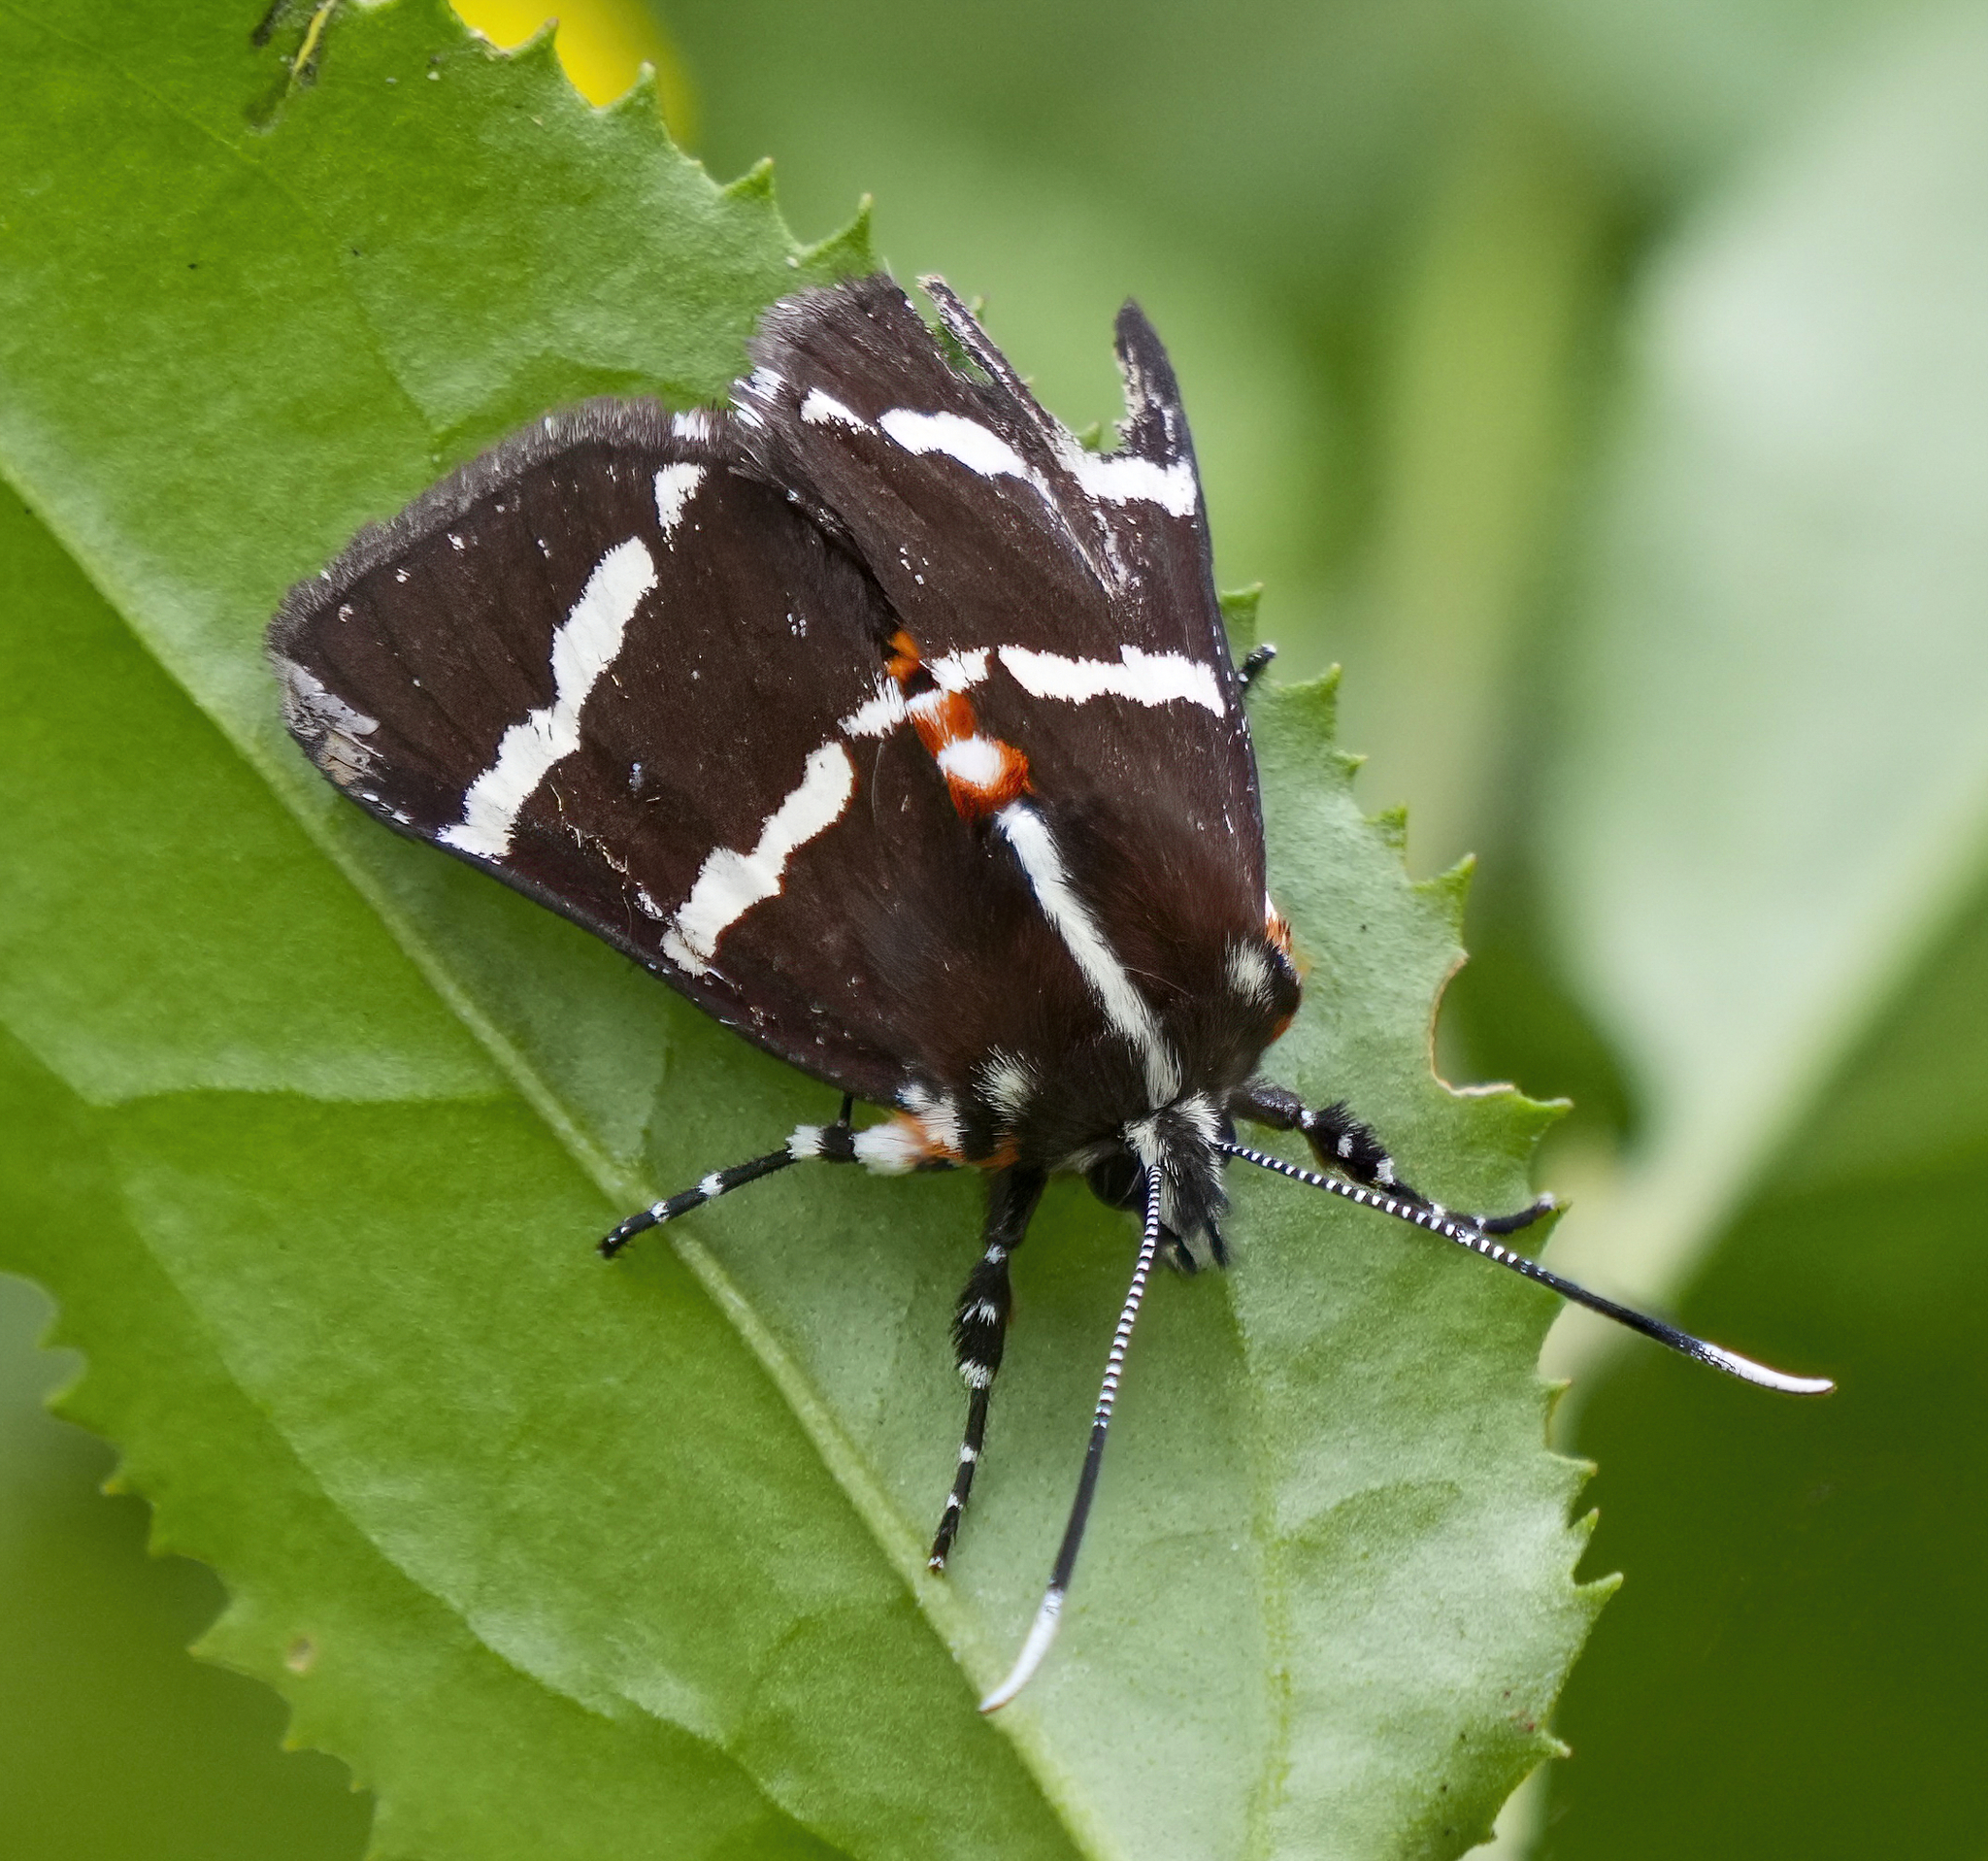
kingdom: Animalia
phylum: Arthropoda
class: Insecta
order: Lepidoptera
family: Noctuidae
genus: Hecatesia
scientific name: Hecatesia fenestrata
